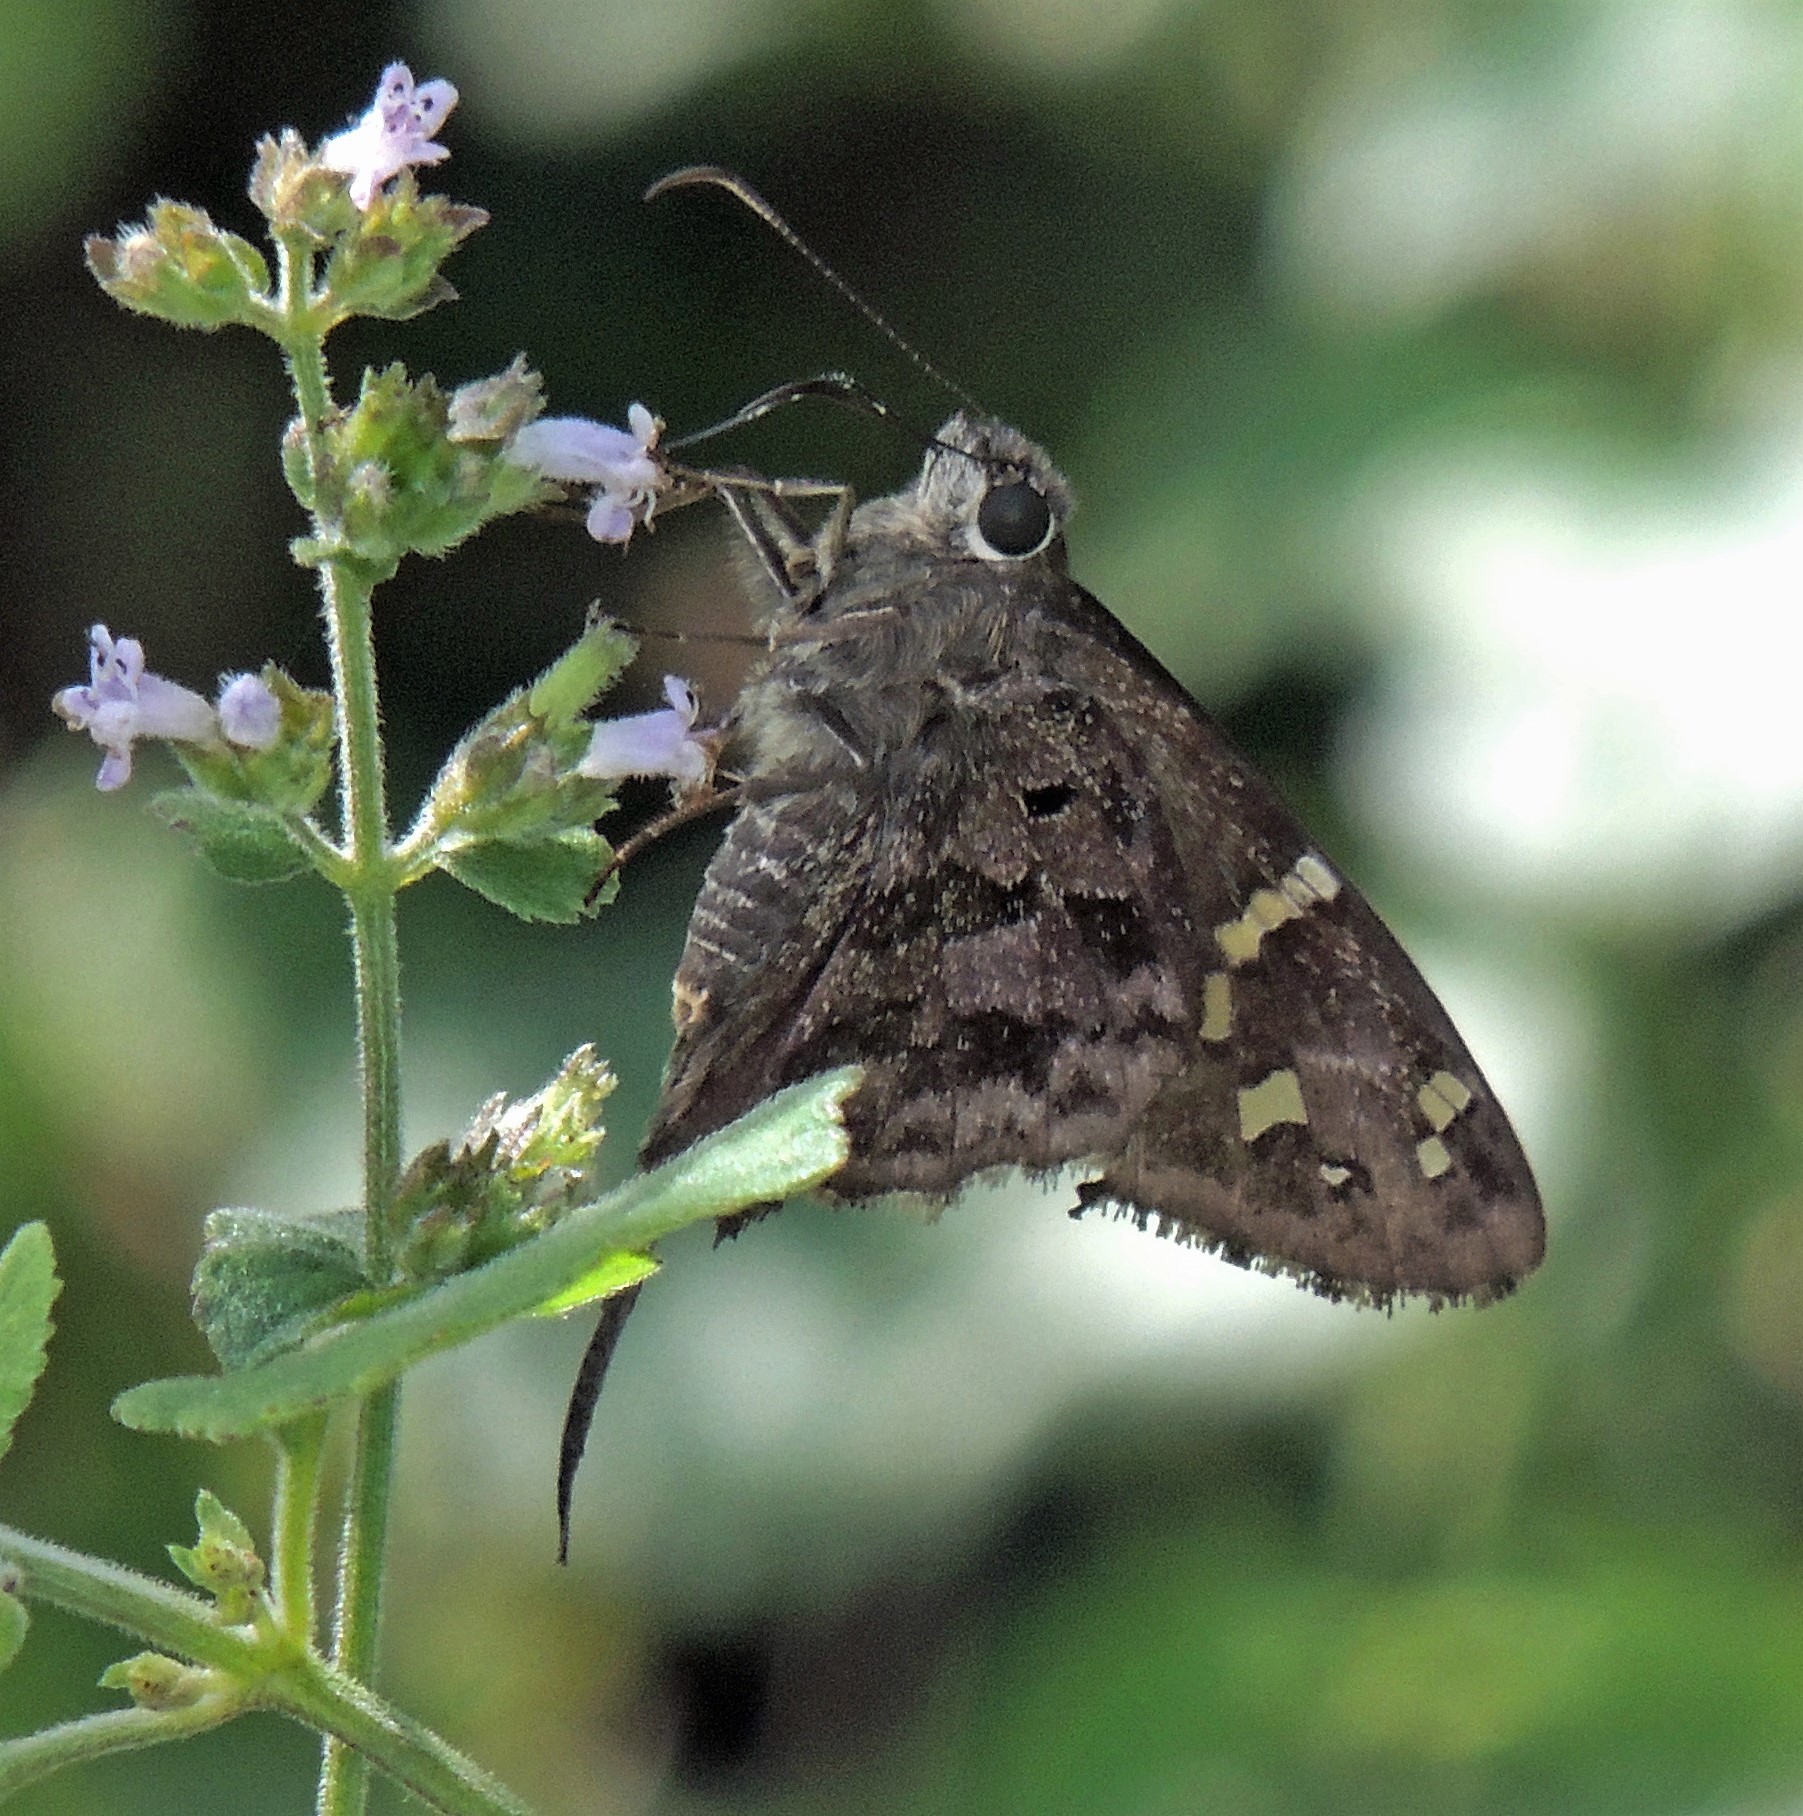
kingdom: Animalia
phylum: Arthropoda
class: Insecta
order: Lepidoptera
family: Hesperiidae
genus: Thorybes
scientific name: Thorybes
